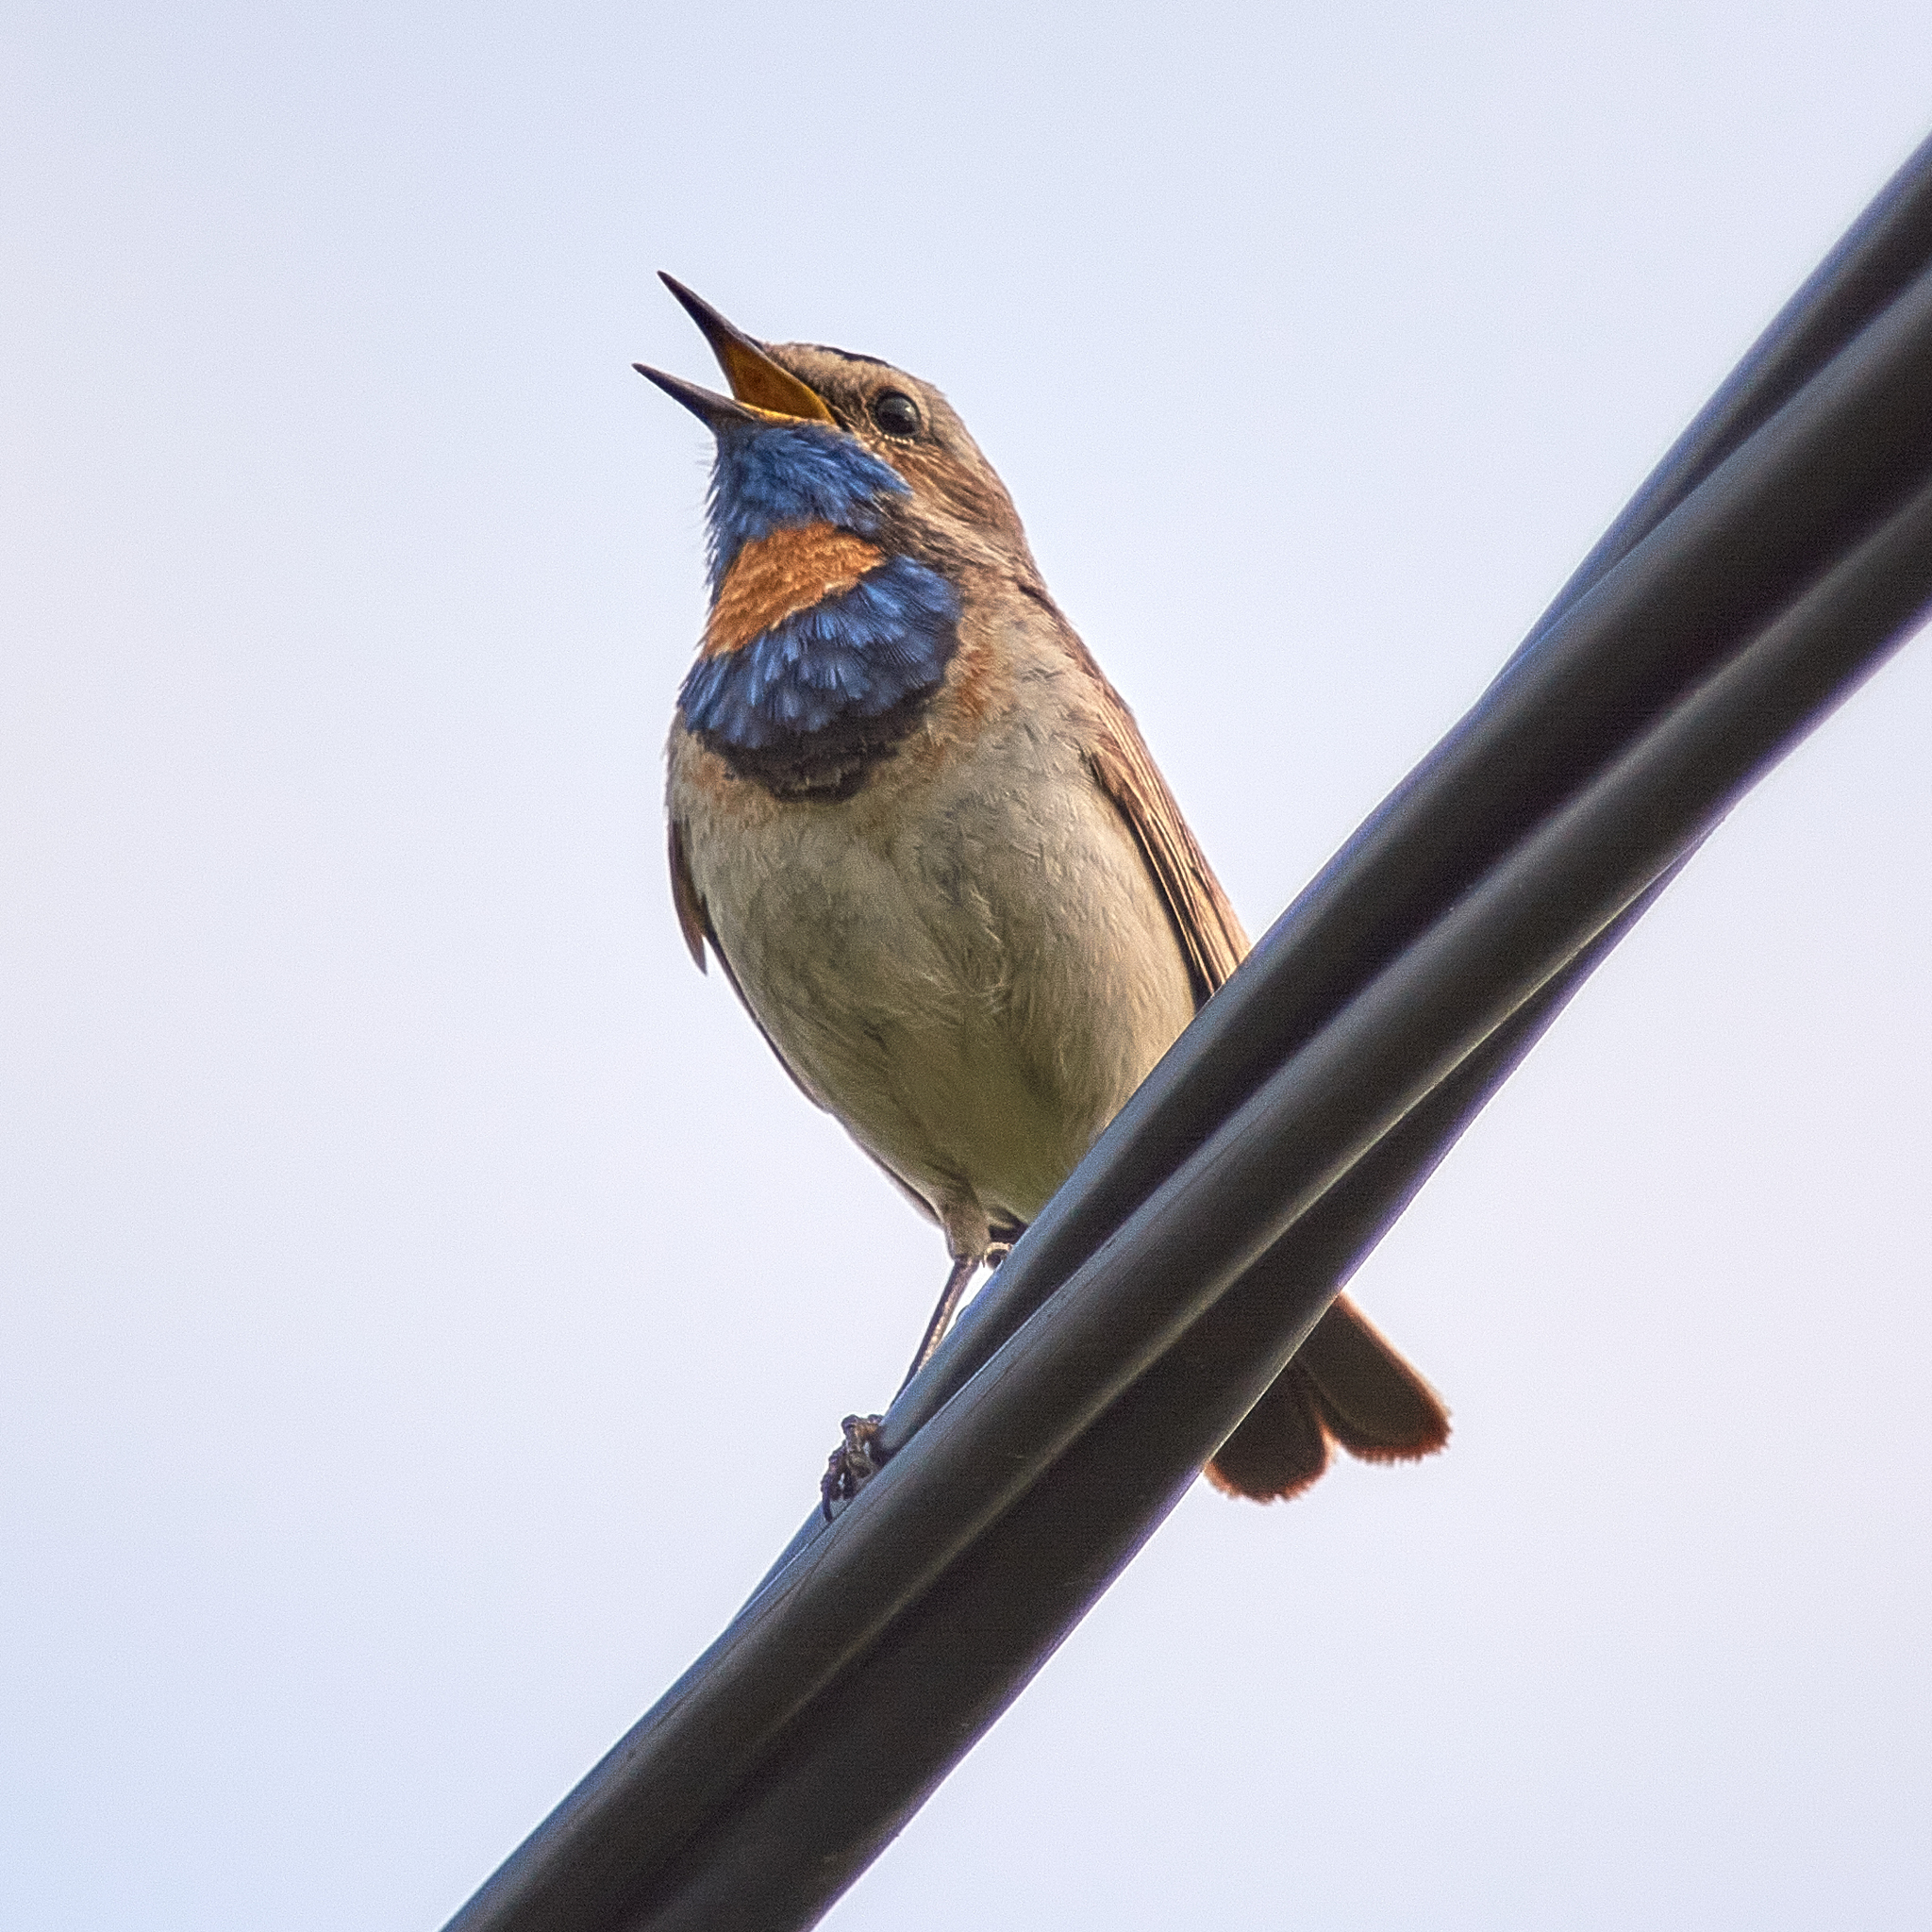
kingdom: Animalia
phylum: Chordata
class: Aves
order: Passeriformes
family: Muscicapidae
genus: Luscinia
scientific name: Luscinia svecica
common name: Bluethroat
